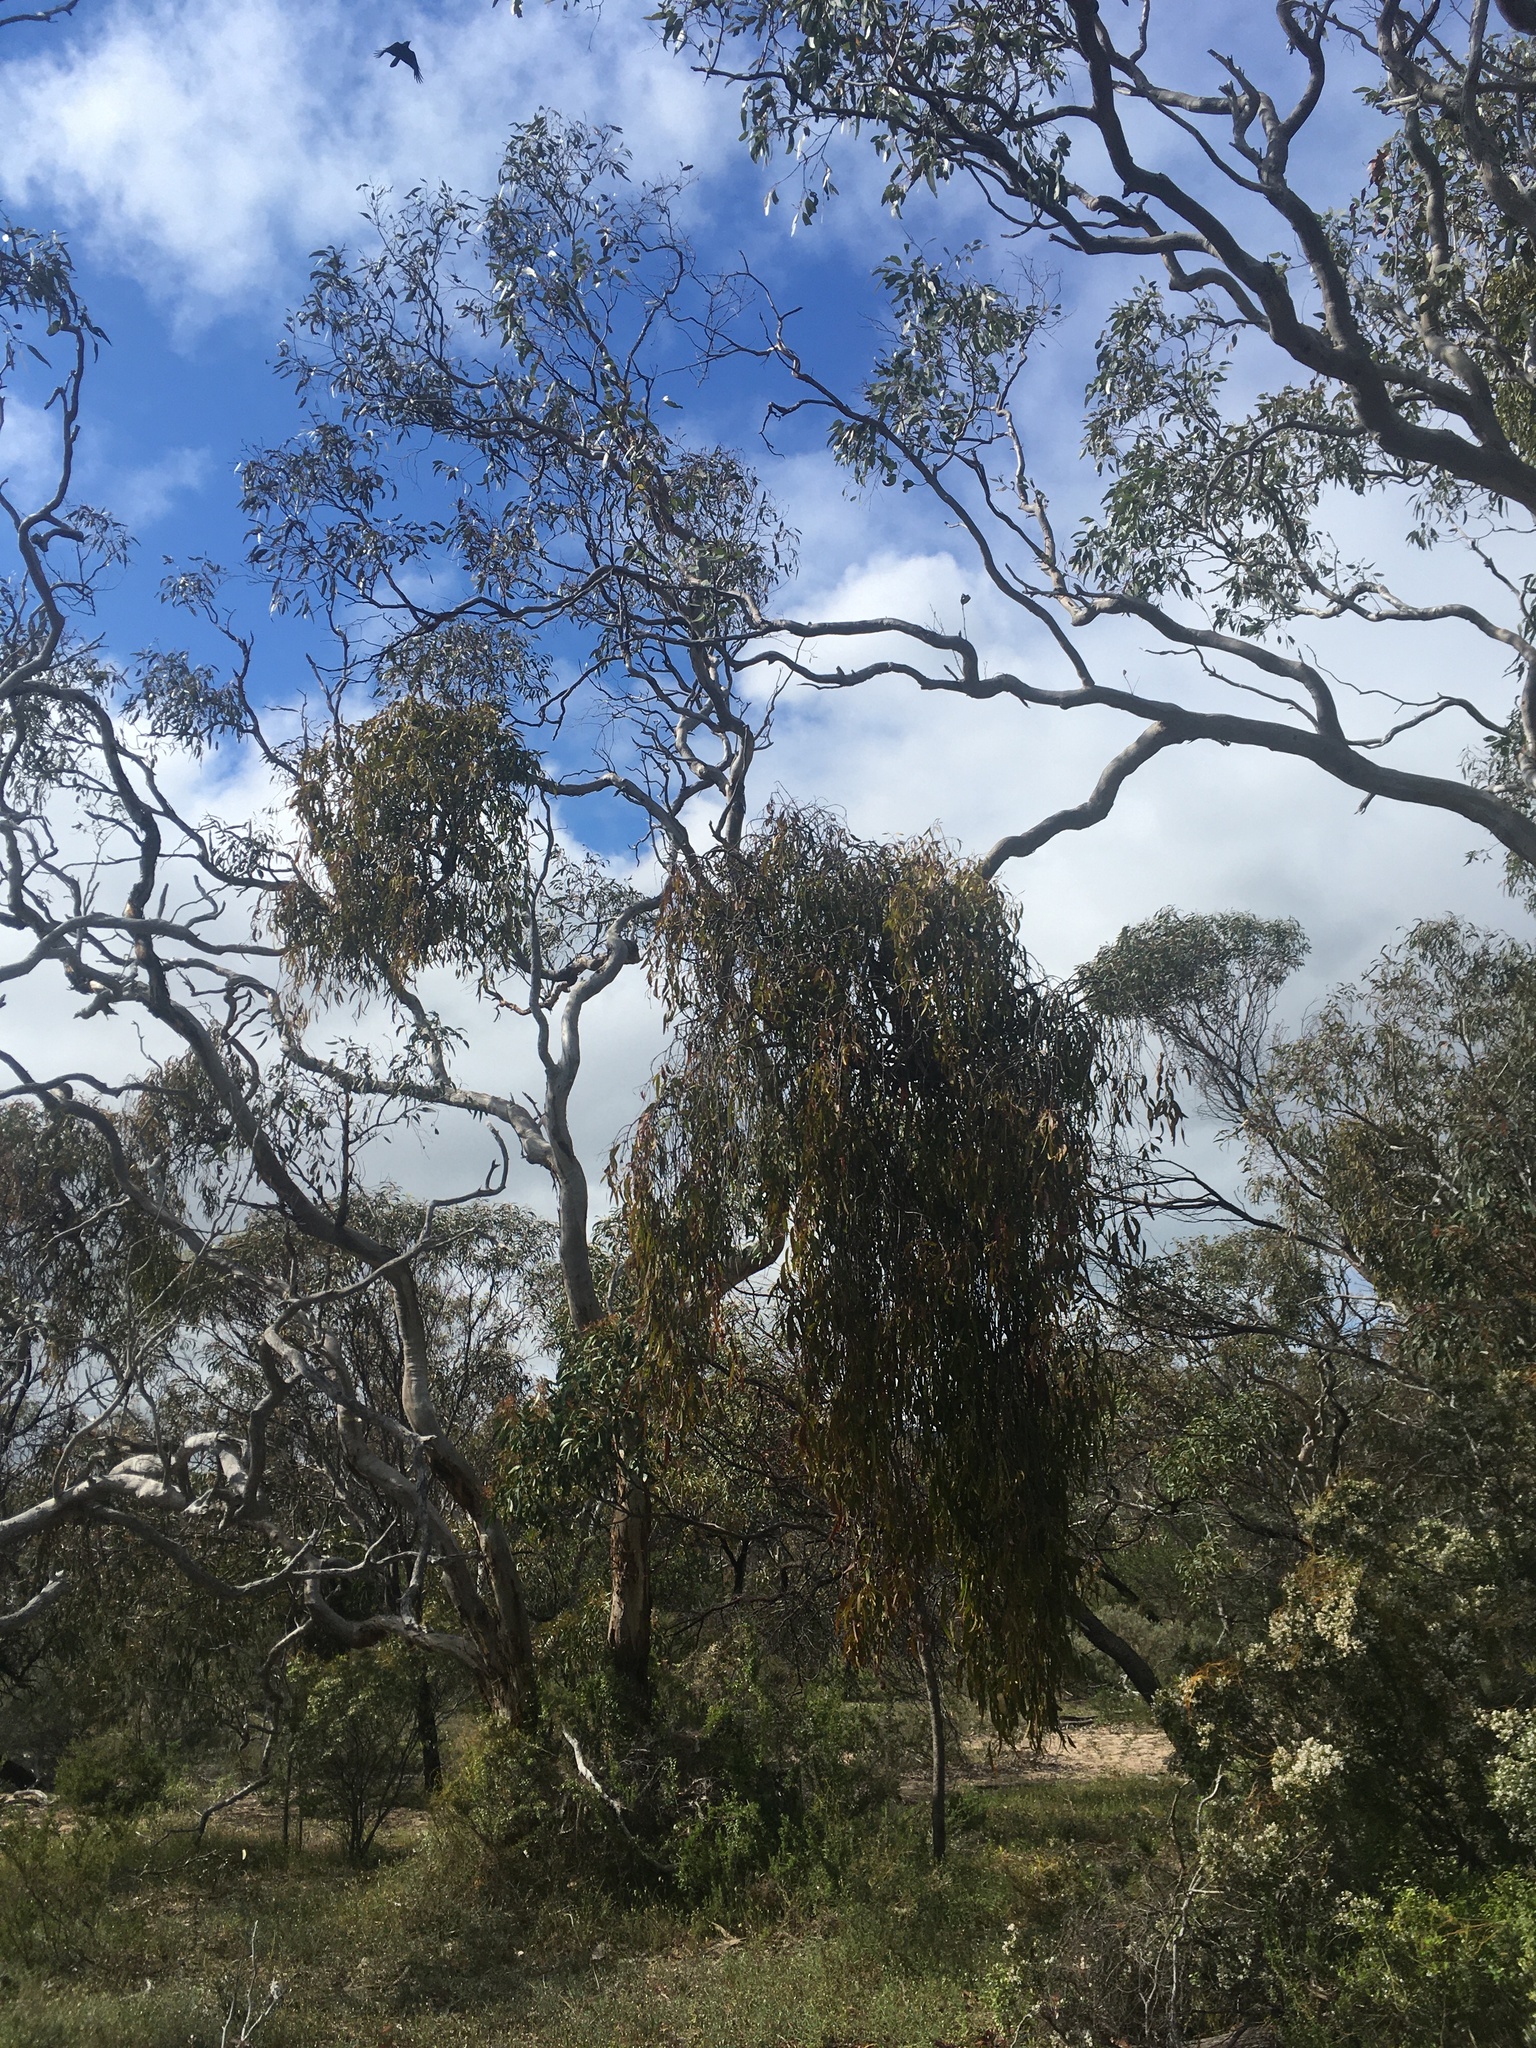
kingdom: Plantae
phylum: Tracheophyta
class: Magnoliopsida
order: Santalales
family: Loranthaceae
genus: Amyema
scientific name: Amyema miquelii
